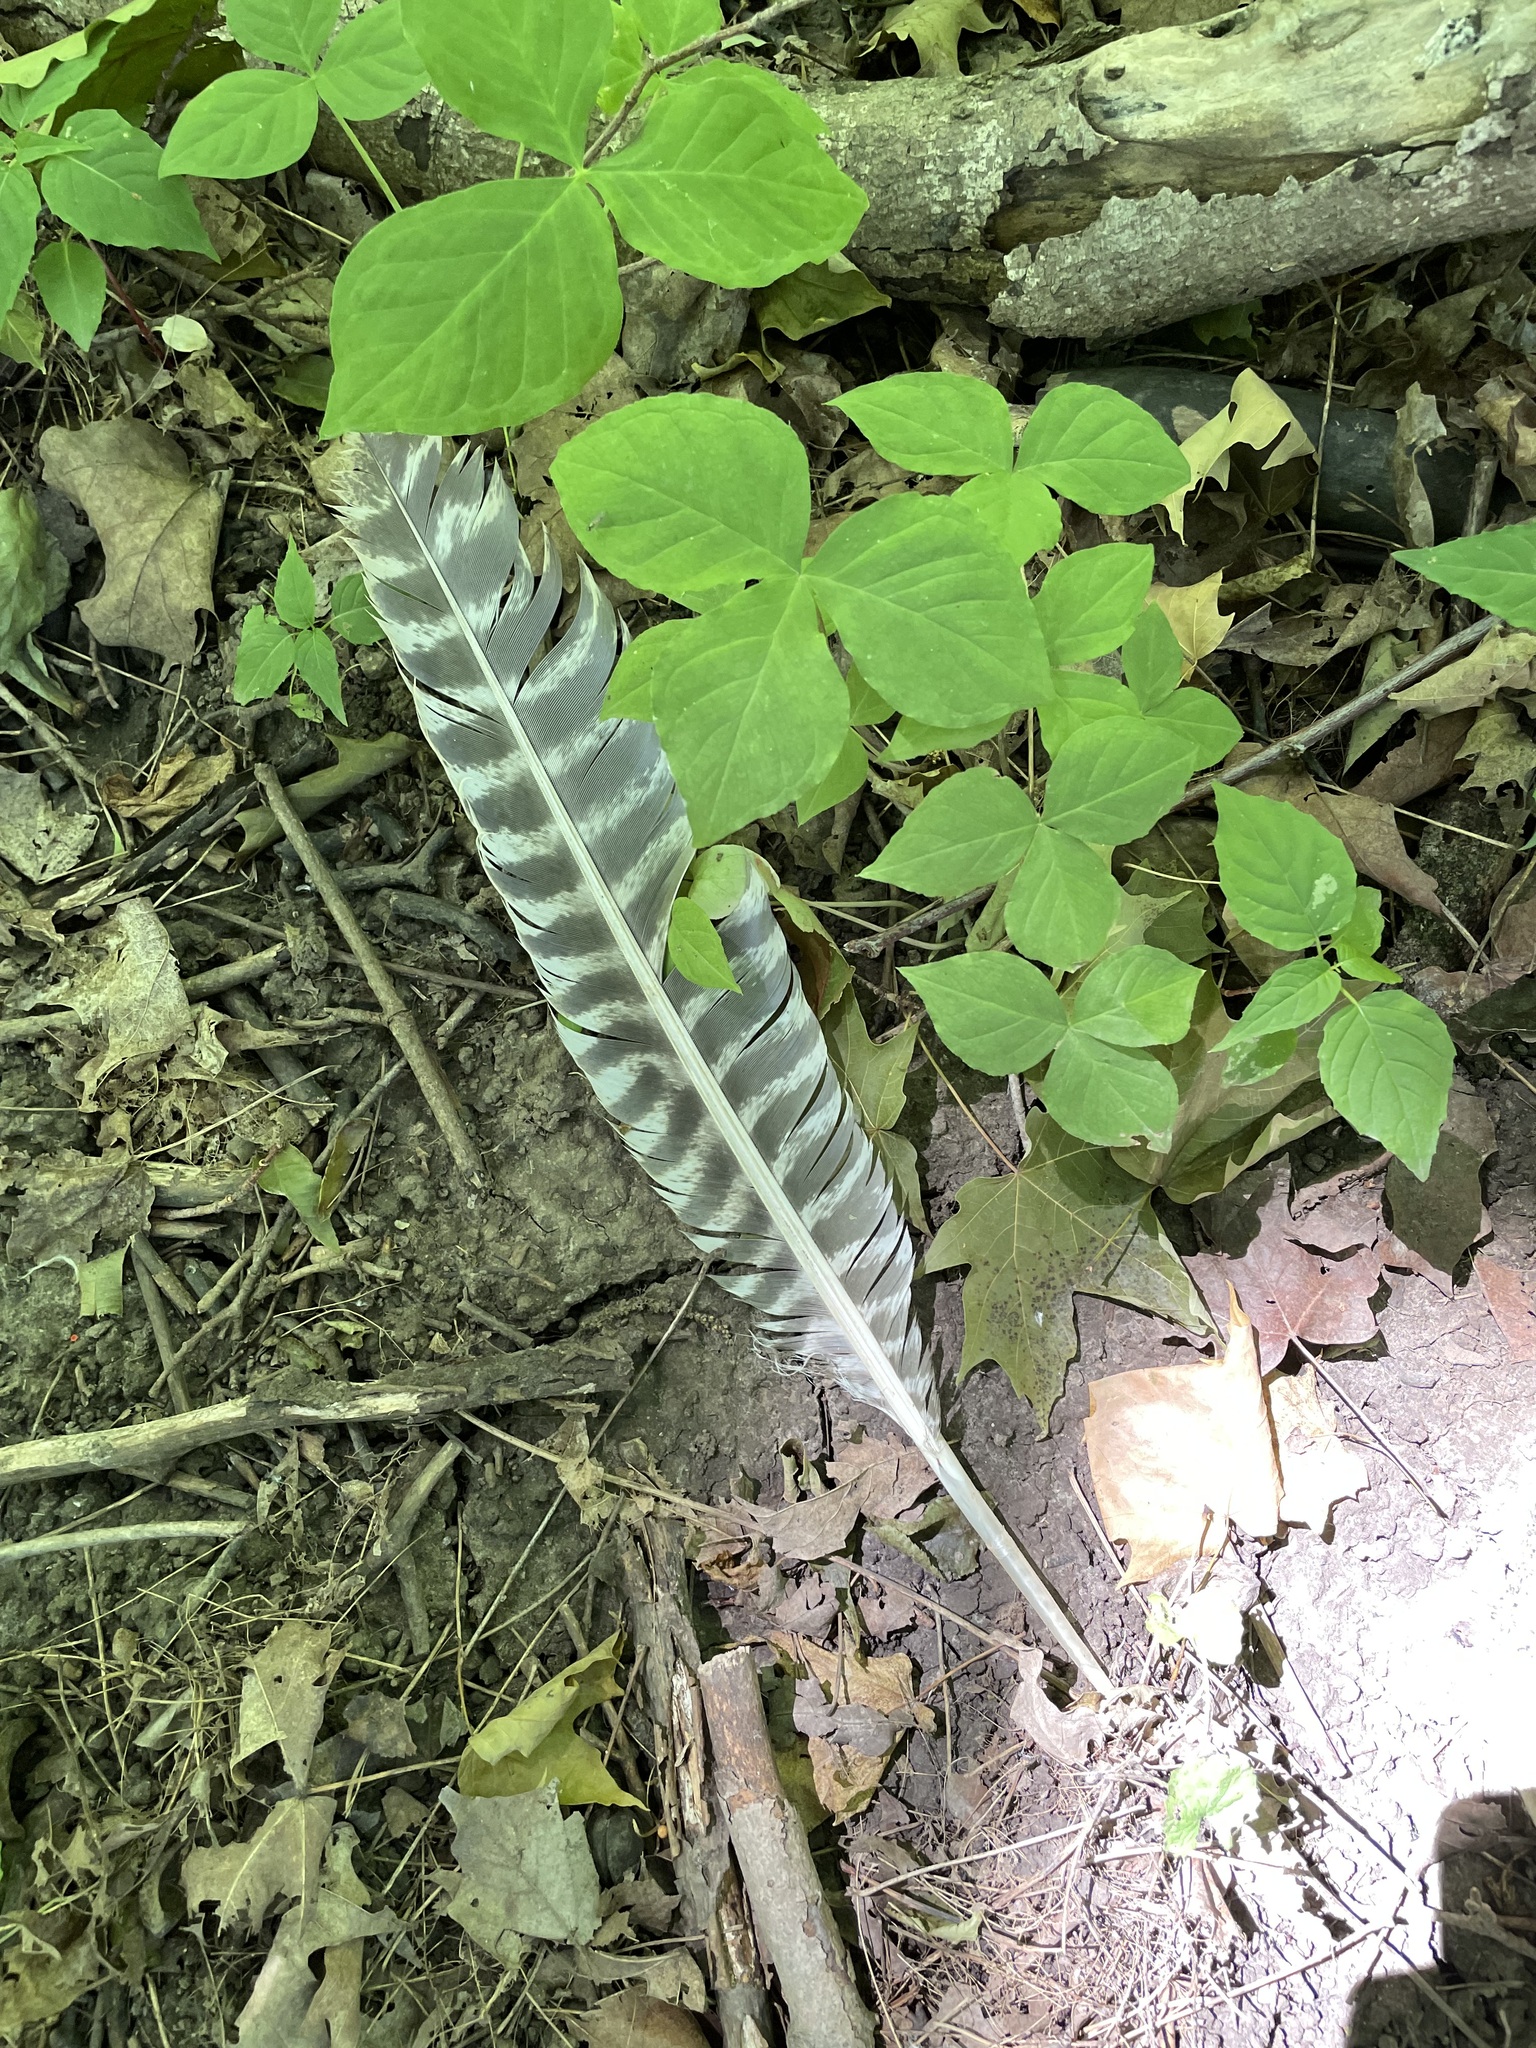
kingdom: Animalia
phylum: Chordata
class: Aves
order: Galliformes
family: Phasianidae
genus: Meleagris
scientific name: Meleagris gallopavo
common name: Wild turkey
